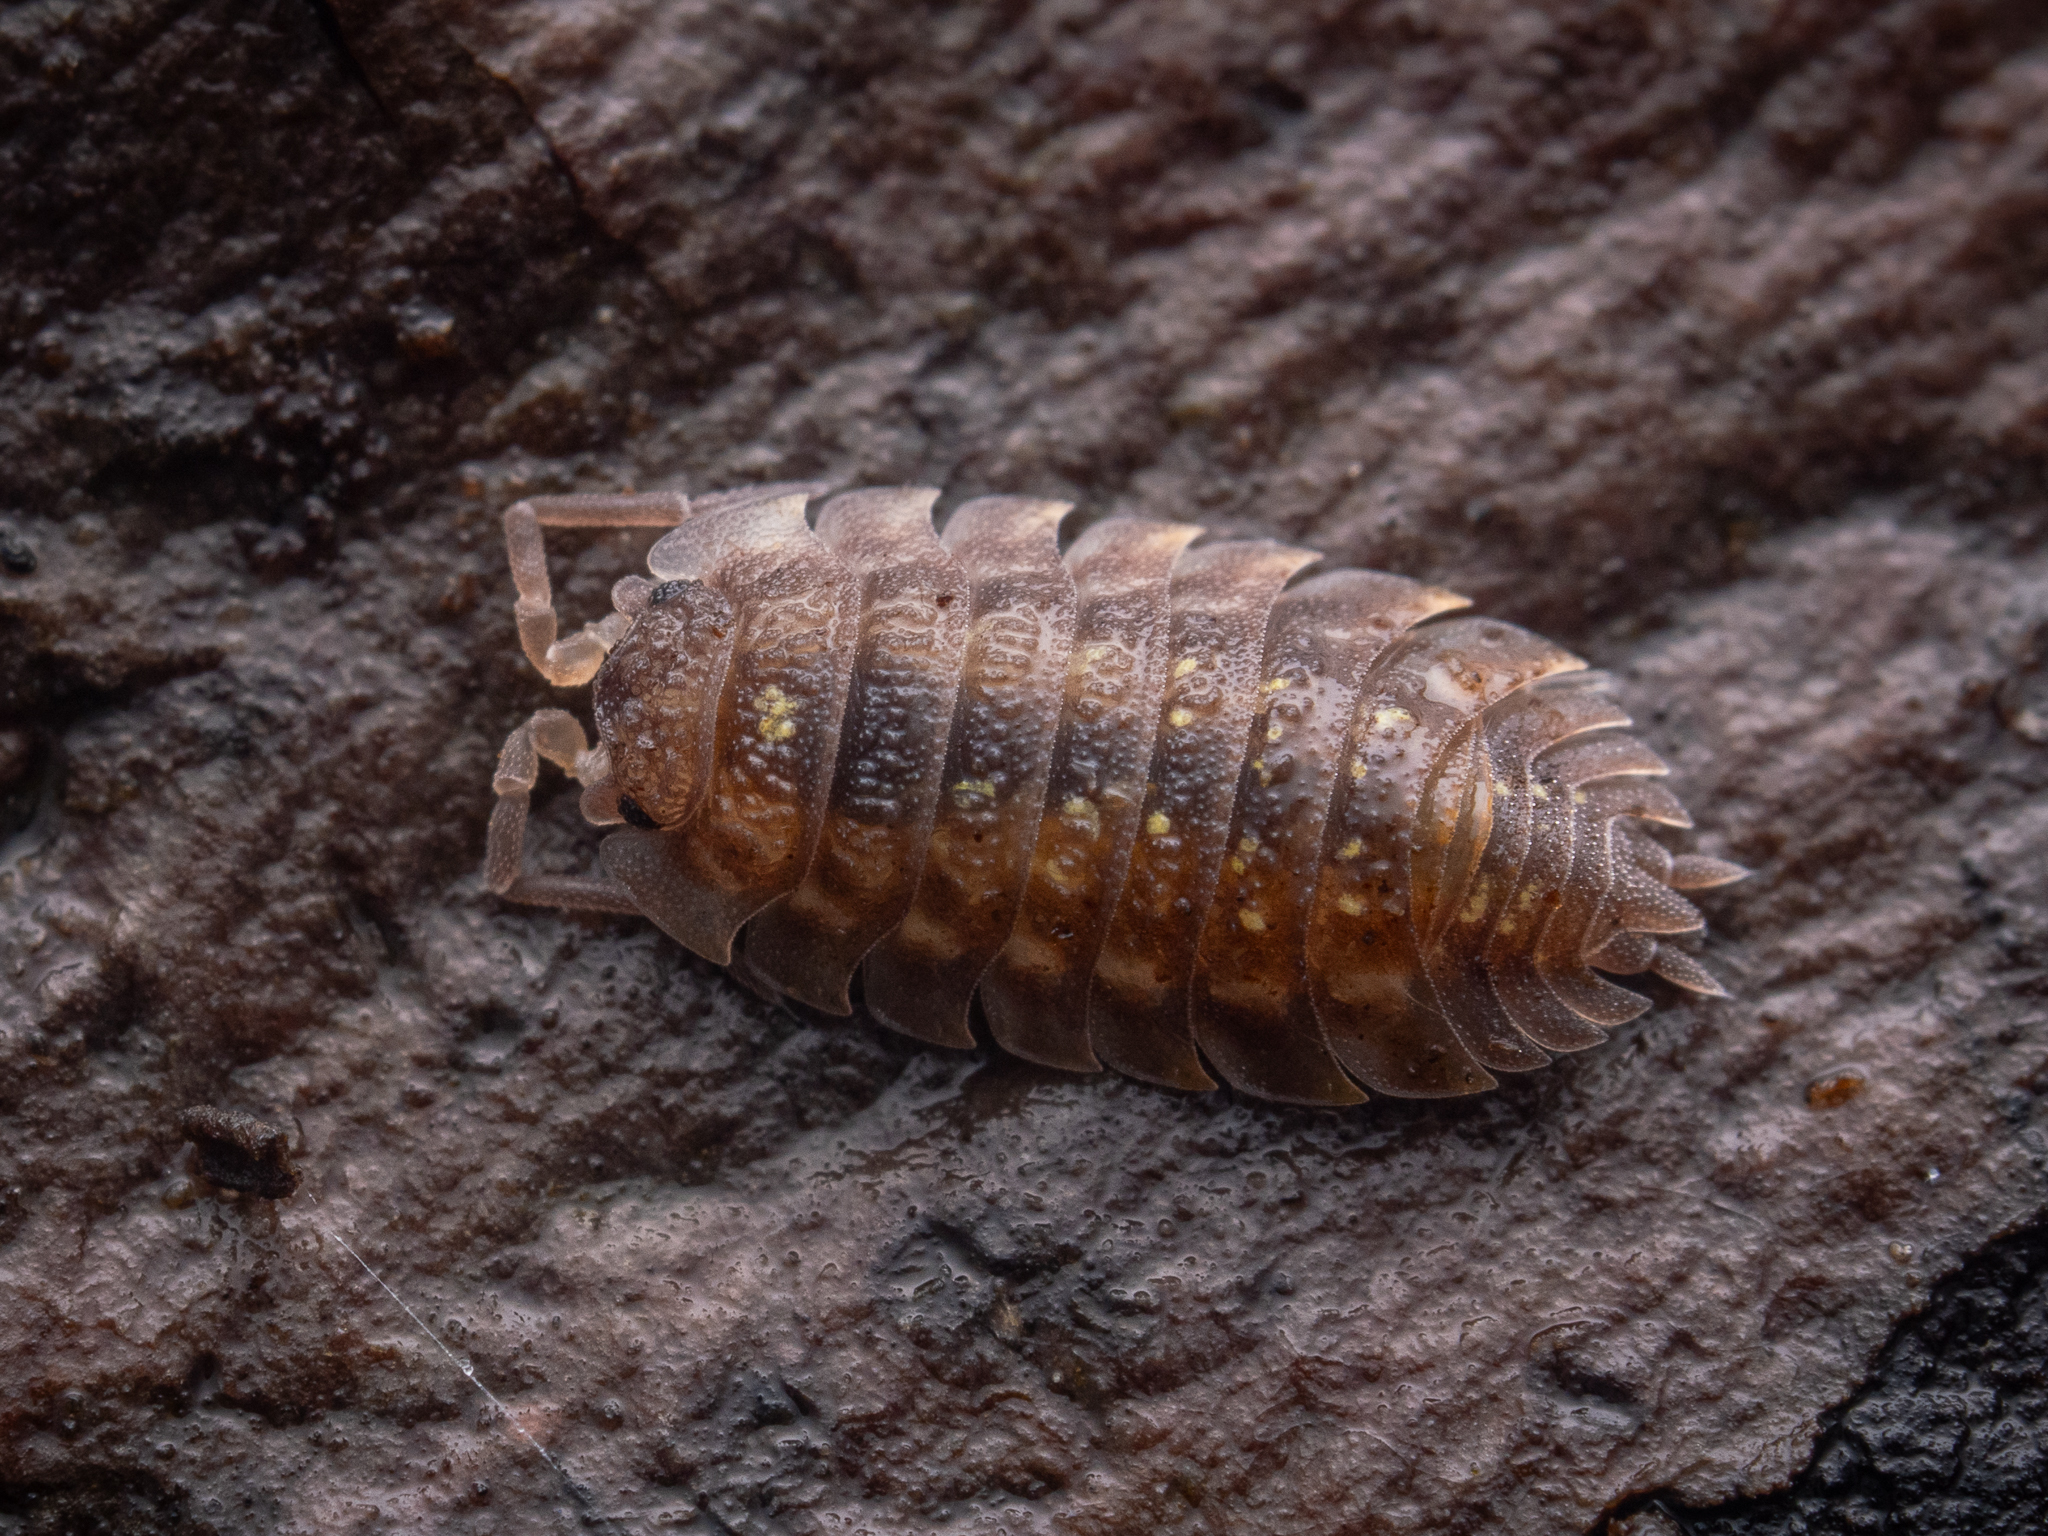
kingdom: Animalia
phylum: Arthropoda
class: Malacostraca
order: Isopoda
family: Oniscidae
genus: Oniscus
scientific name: Oniscus asellus
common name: Common shiny woodlouse
